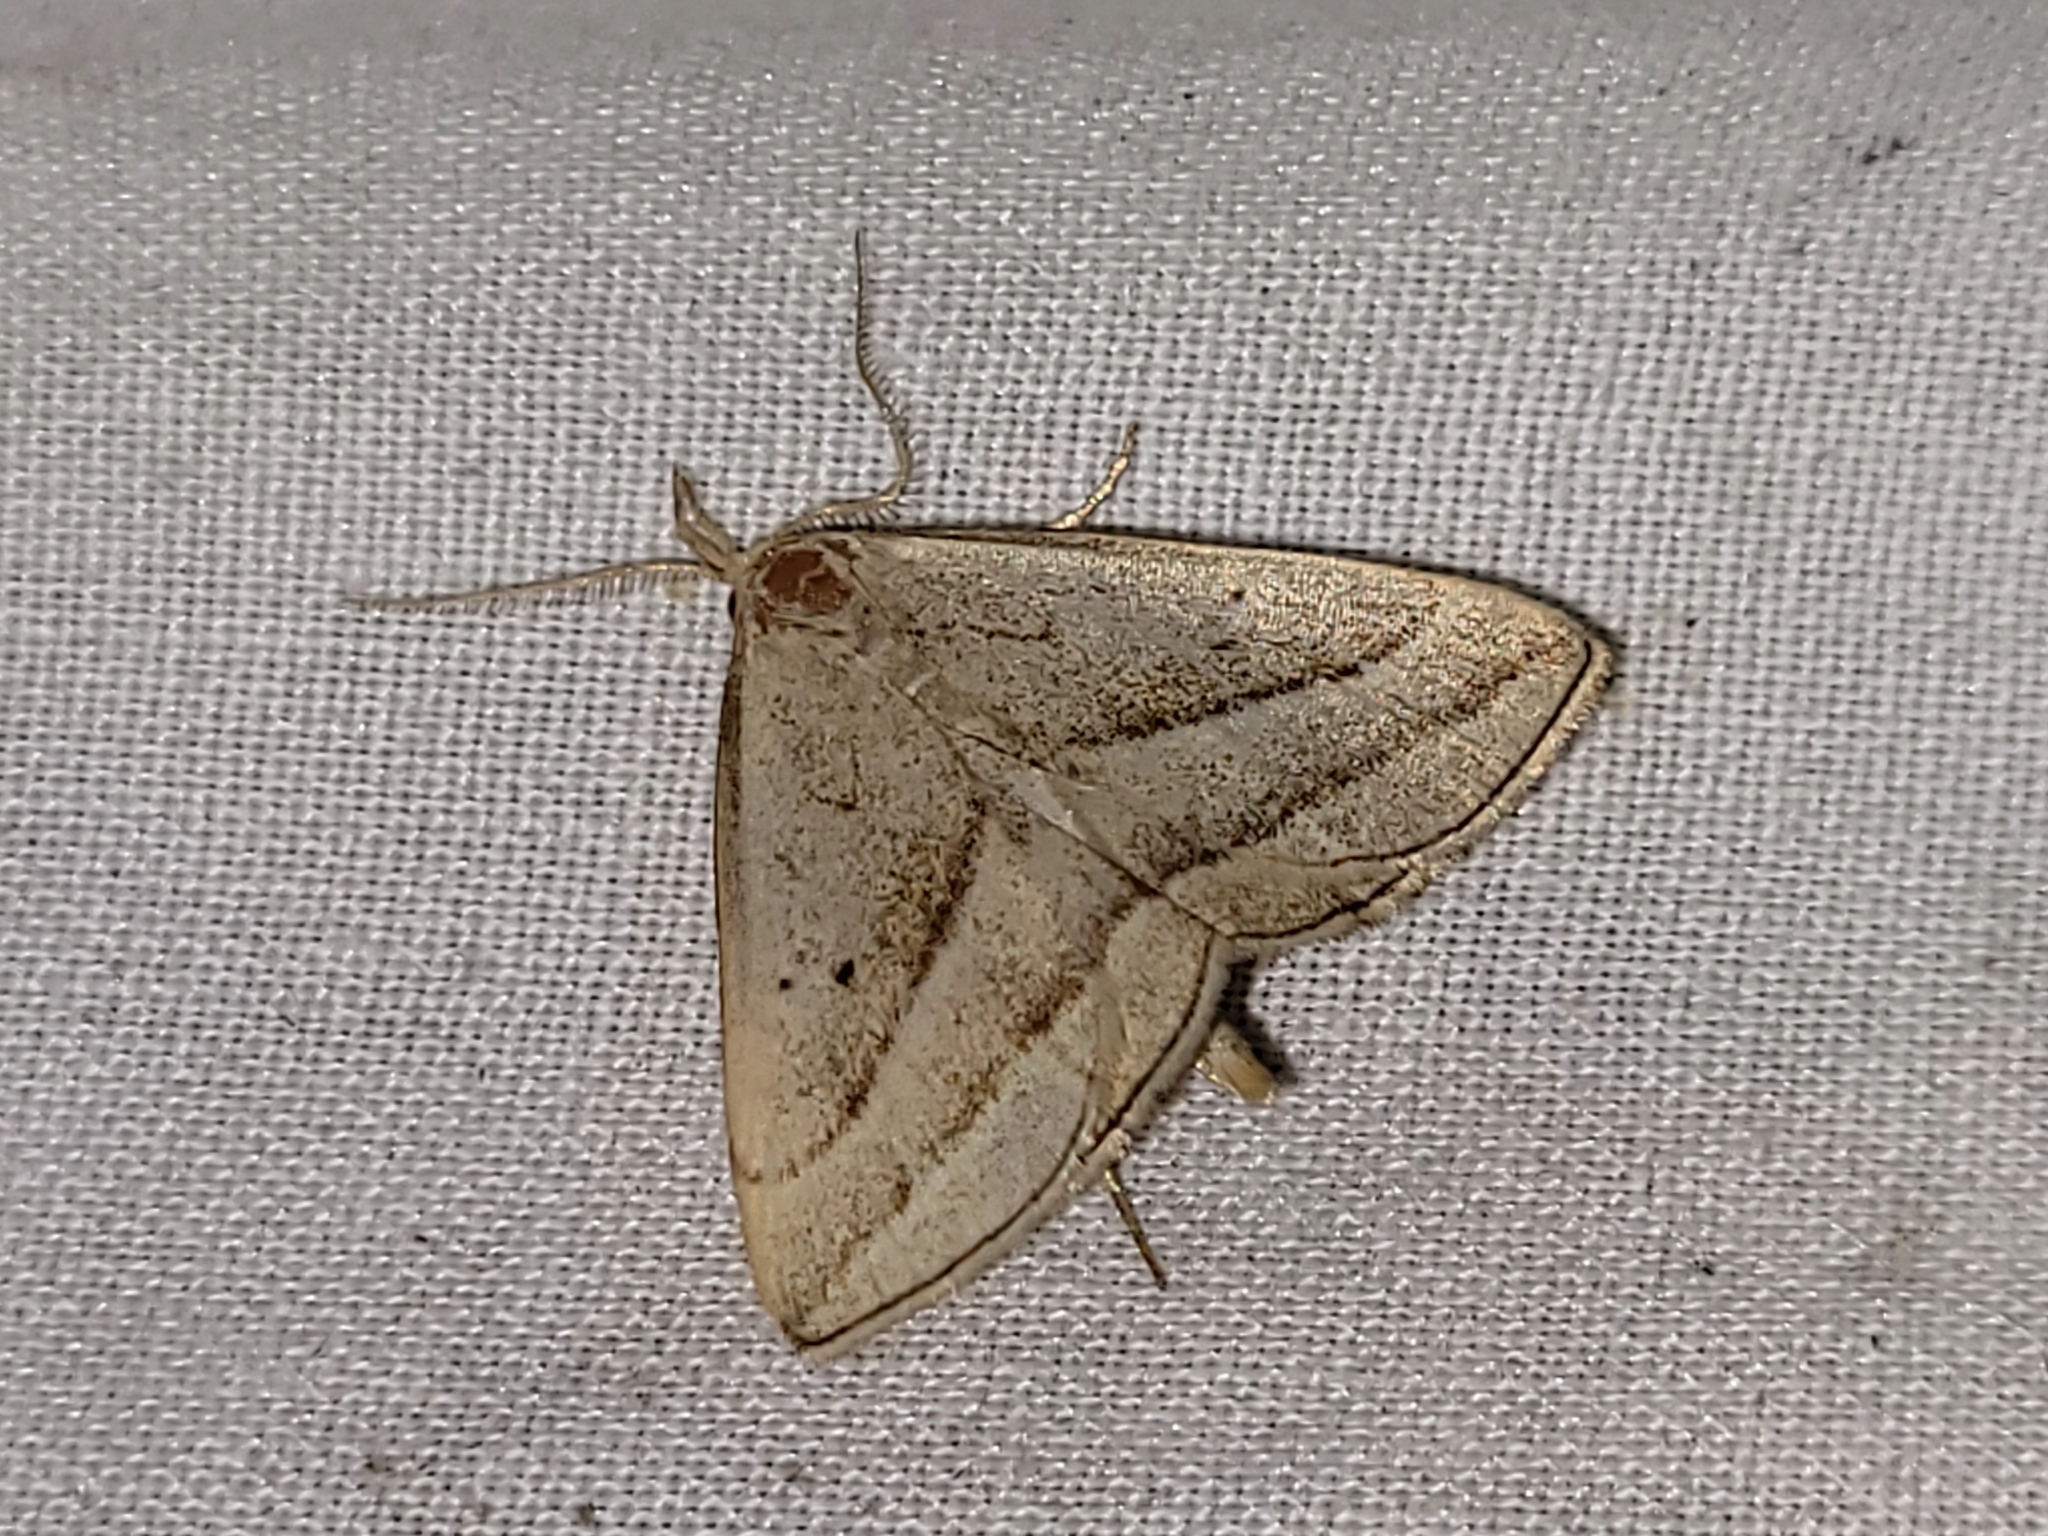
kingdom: Animalia
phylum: Arthropoda
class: Insecta
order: Lepidoptera
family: Erebidae
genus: Macrochilo
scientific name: Macrochilo absorptalis
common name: Slant-lined owlet
